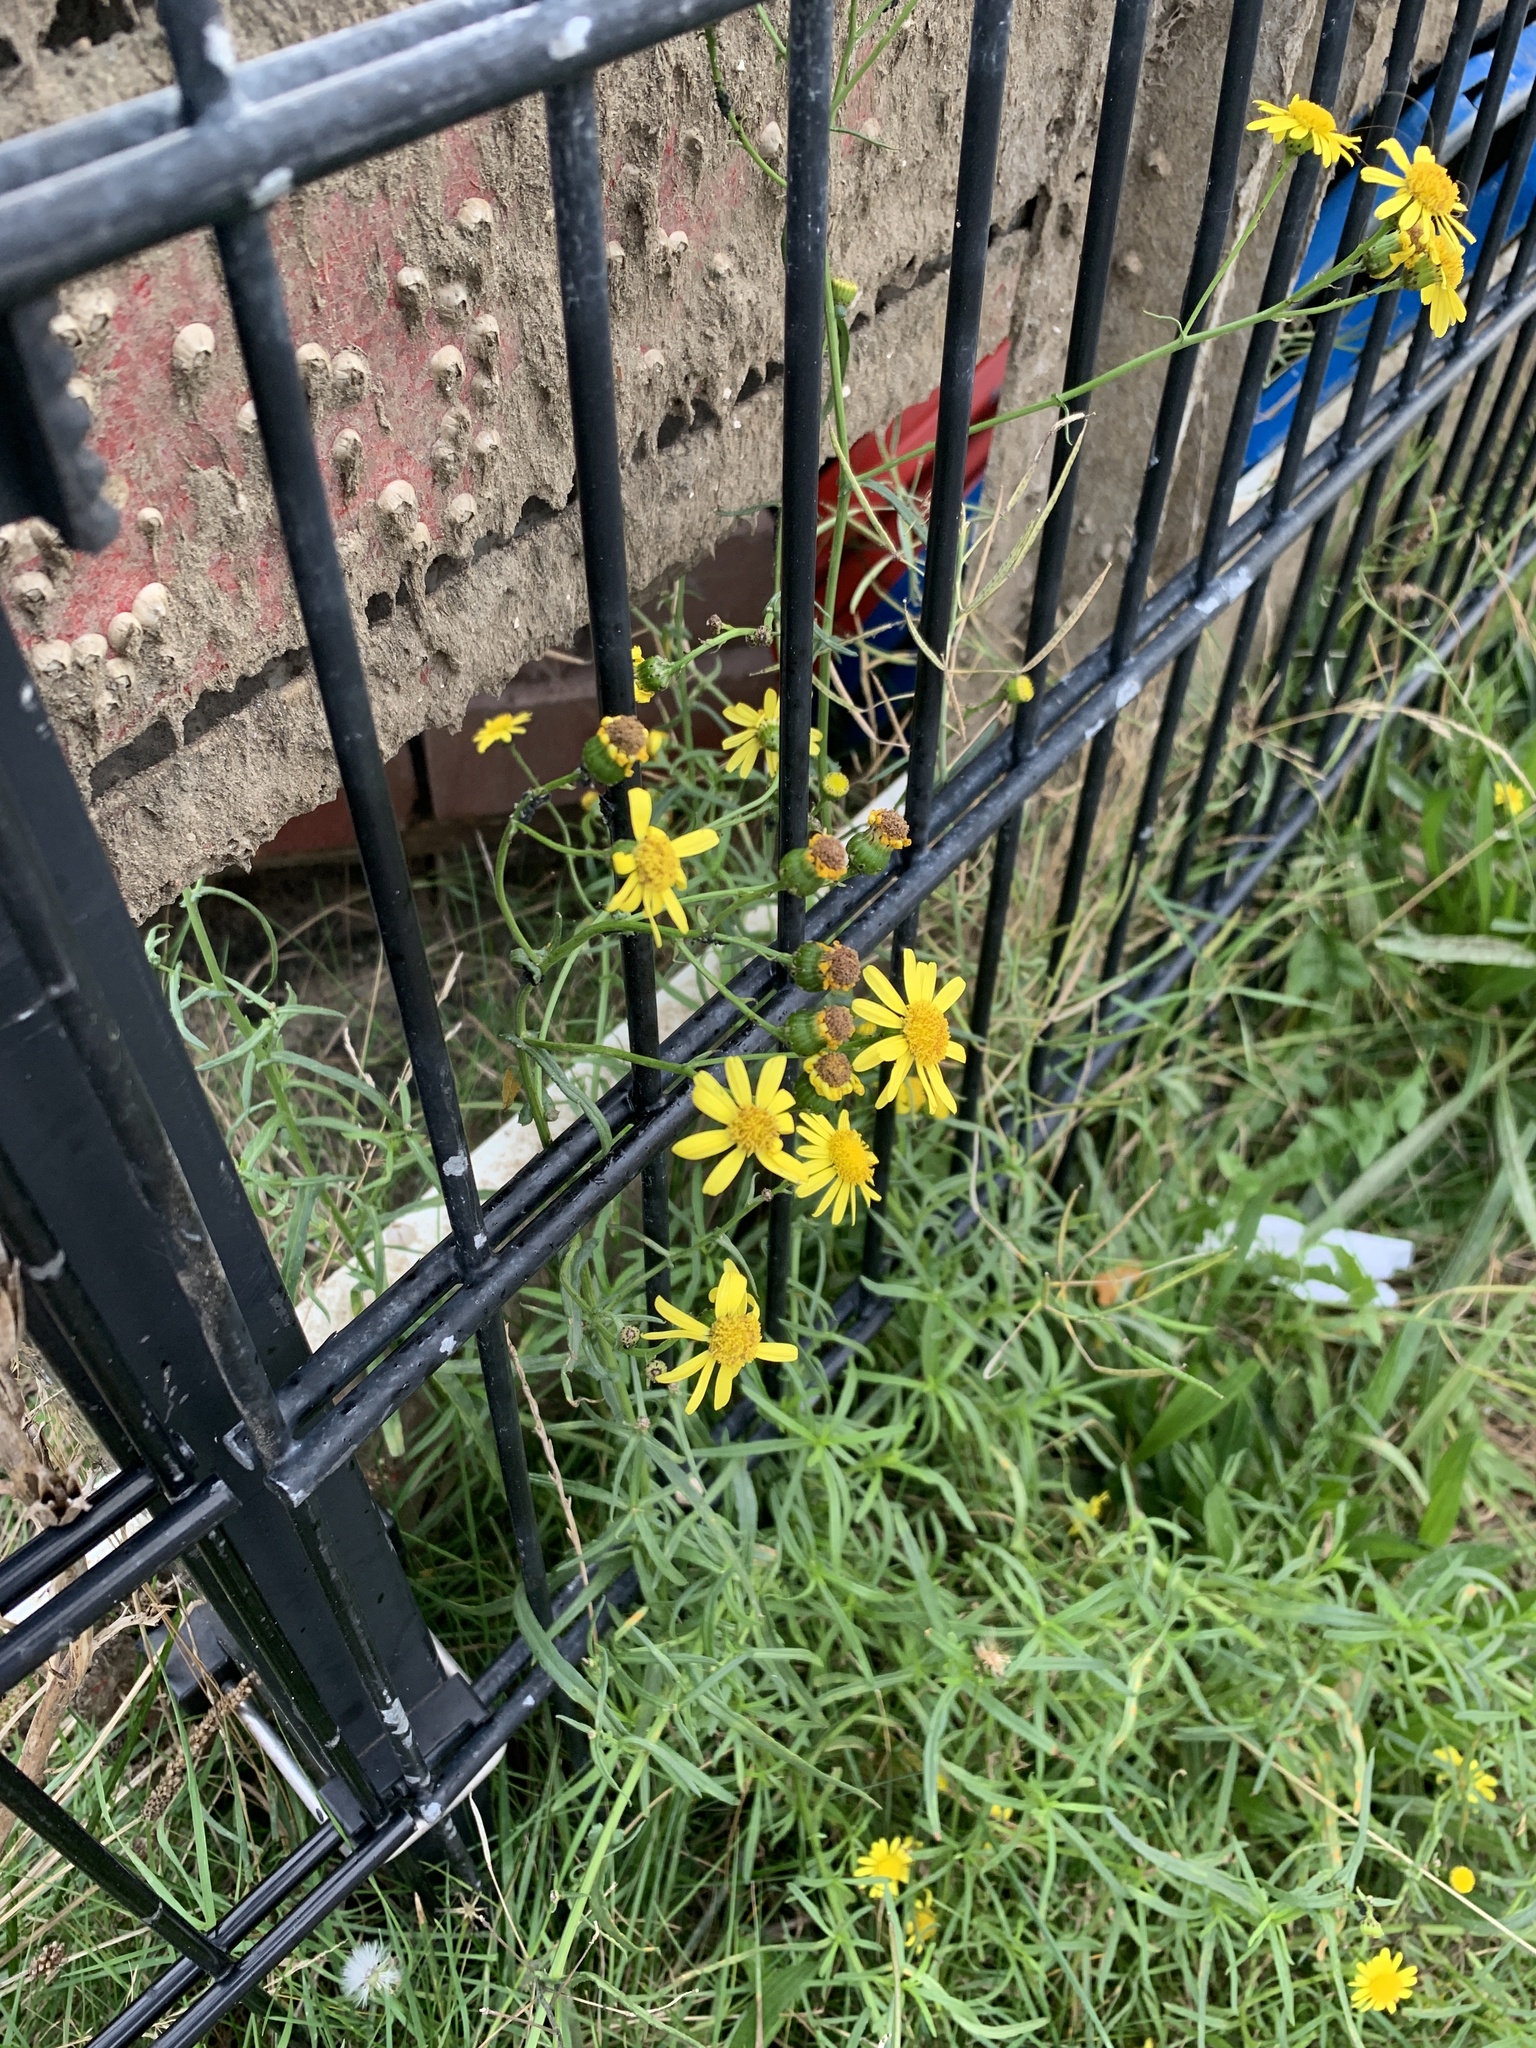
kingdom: Plantae
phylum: Tracheophyta
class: Magnoliopsida
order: Asterales
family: Asteraceae
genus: Senecio
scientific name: Senecio inaequidens
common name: Narrow-leaved ragwort
